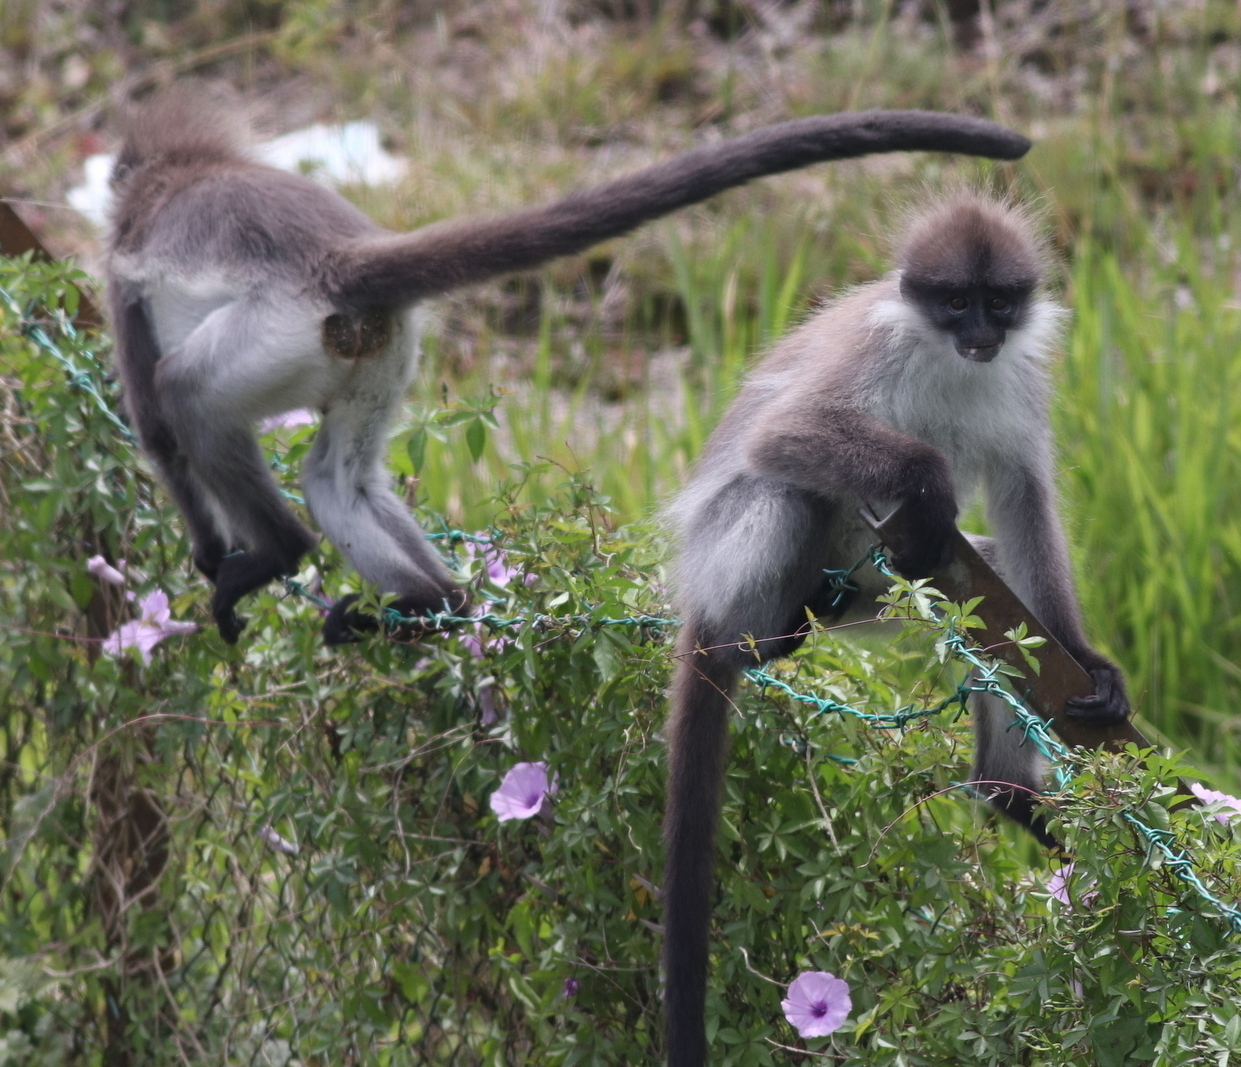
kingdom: Animalia
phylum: Chordata
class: Mammalia
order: Primates
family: Cercopithecidae
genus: Presbytis
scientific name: Presbytis siamensis
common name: White-thighed surili
